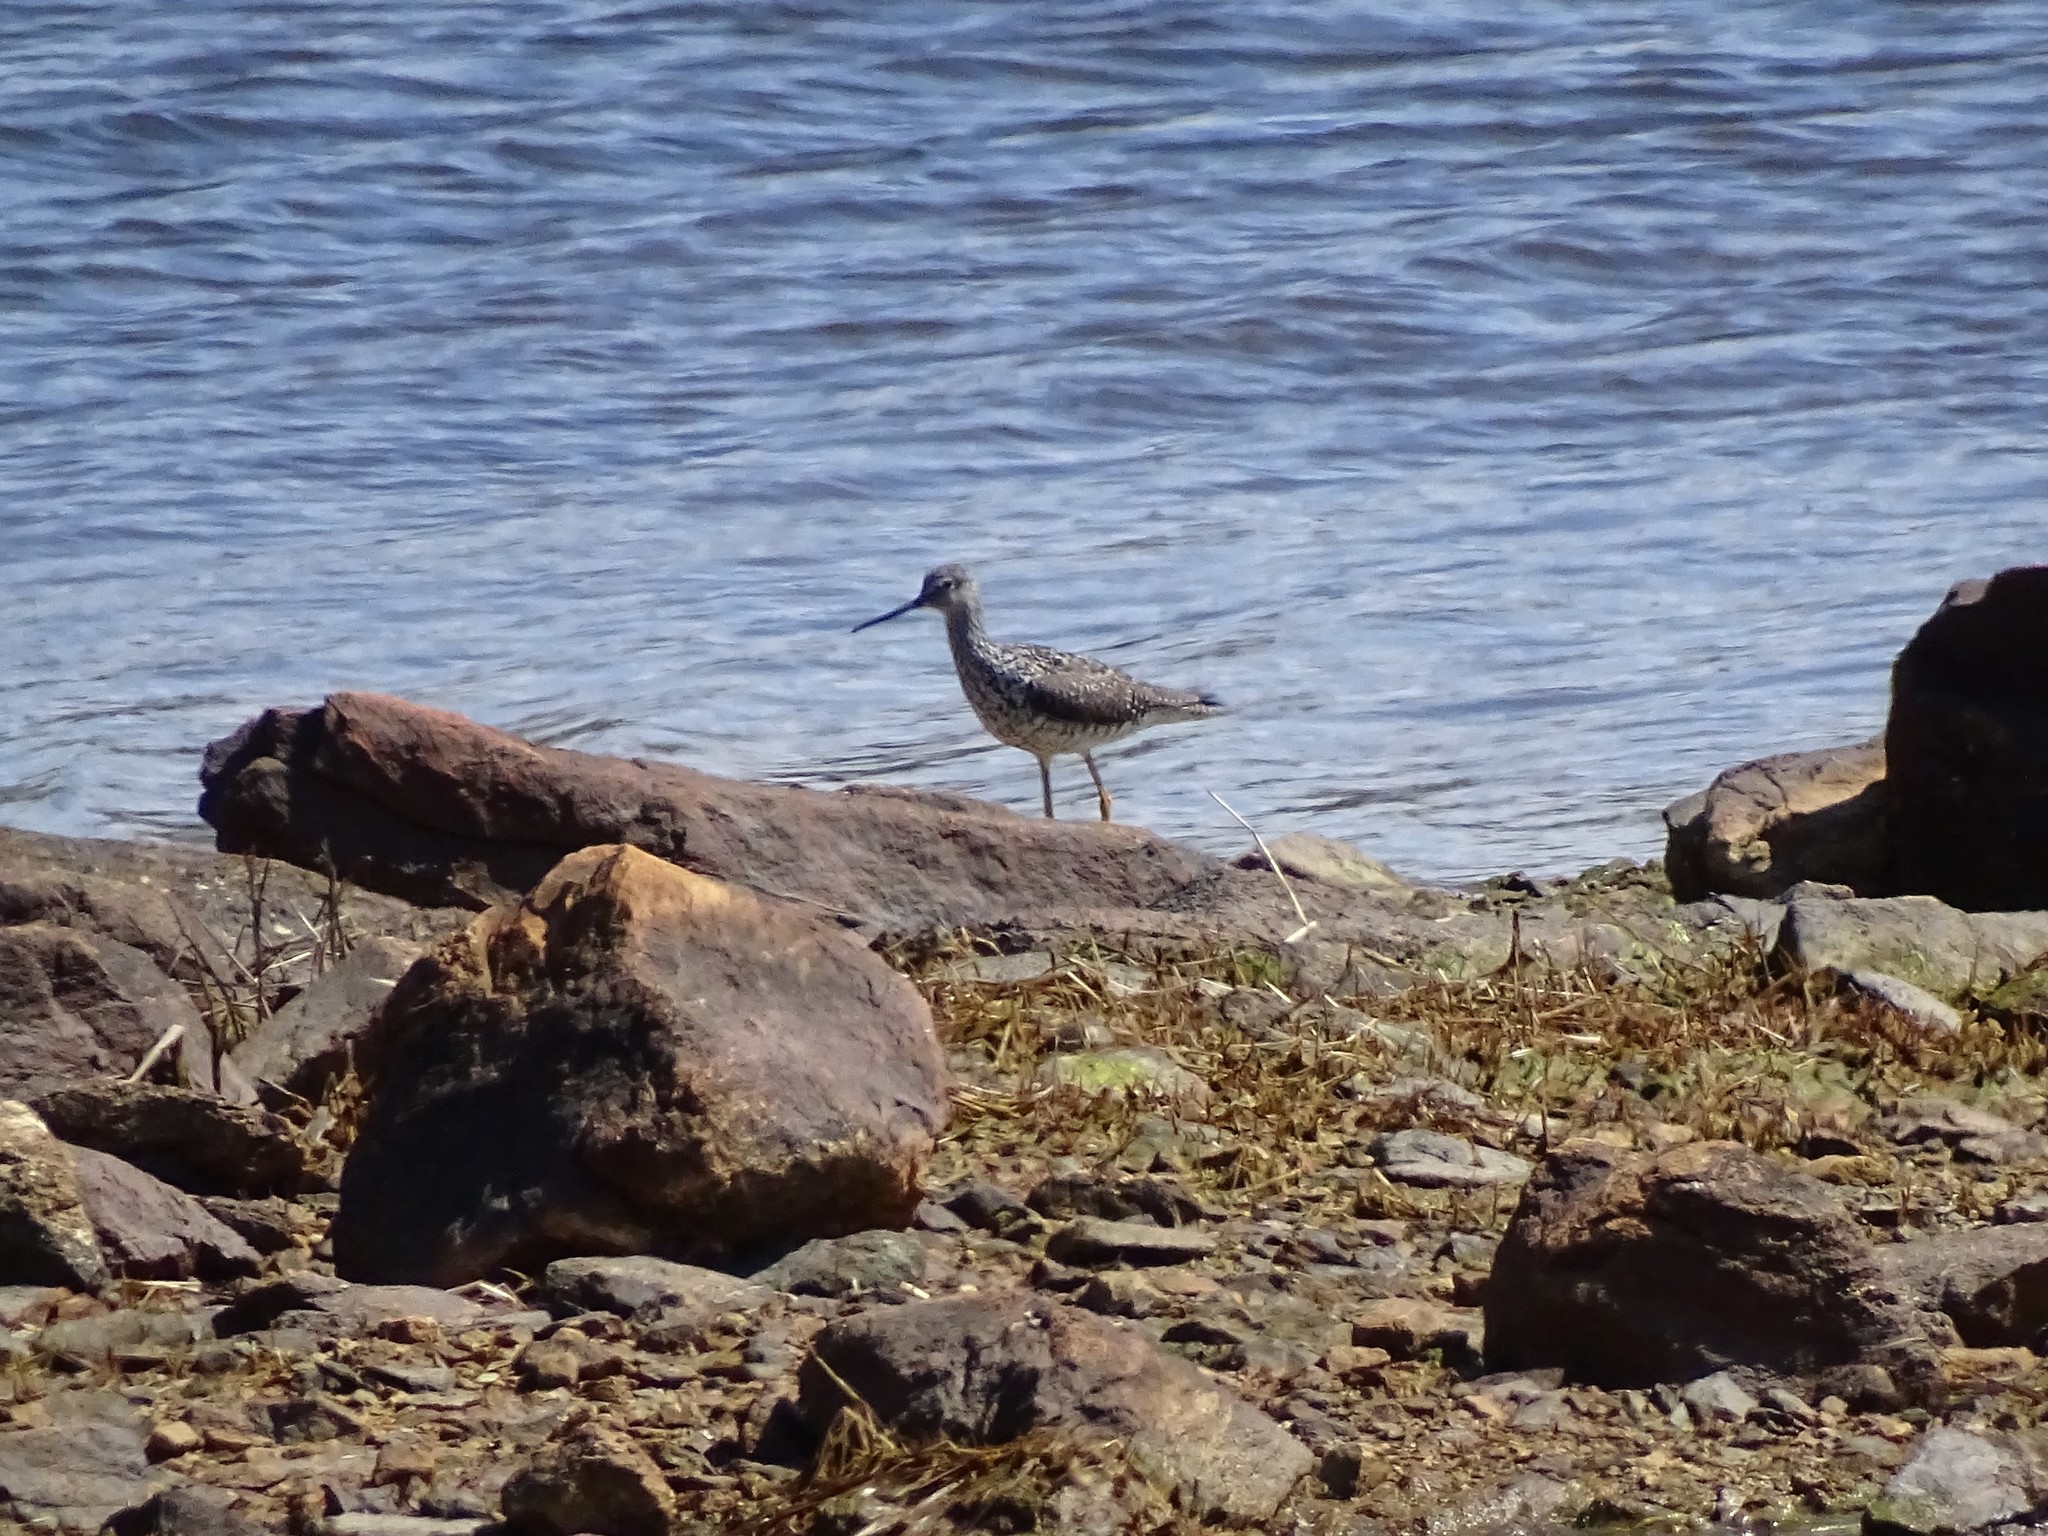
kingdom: Animalia
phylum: Chordata
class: Aves
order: Charadriiformes
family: Scolopacidae
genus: Tringa
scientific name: Tringa melanoleuca
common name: Greater yellowlegs
